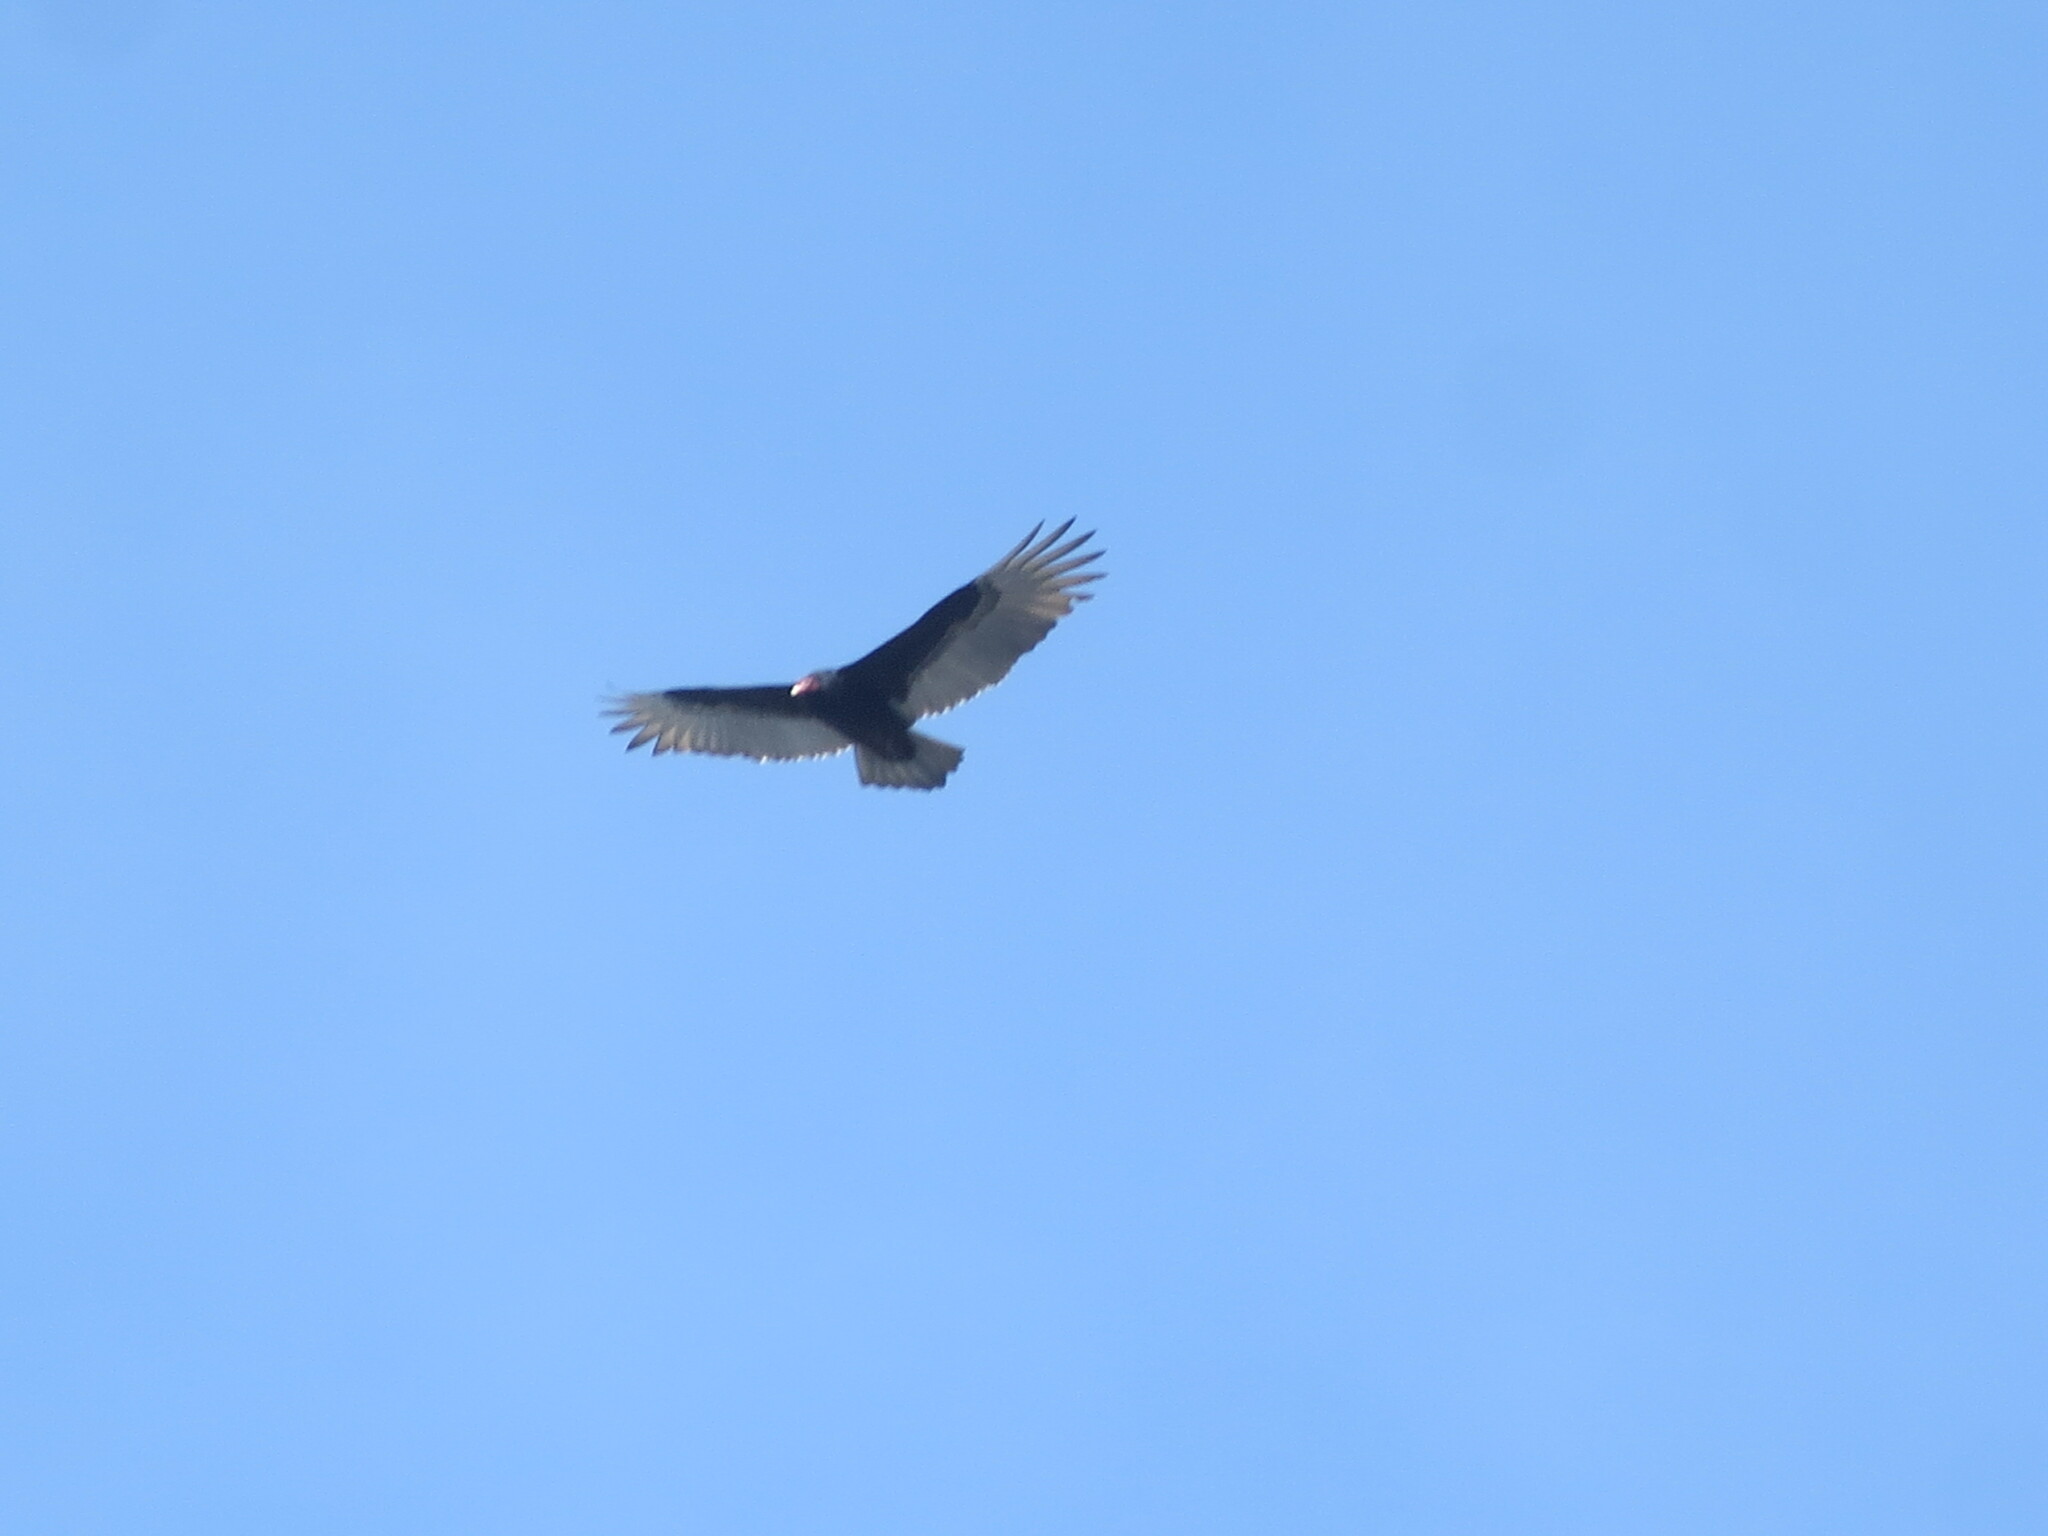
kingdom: Animalia
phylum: Chordata
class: Aves
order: Accipitriformes
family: Cathartidae
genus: Cathartes
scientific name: Cathartes aura
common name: Turkey vulture
